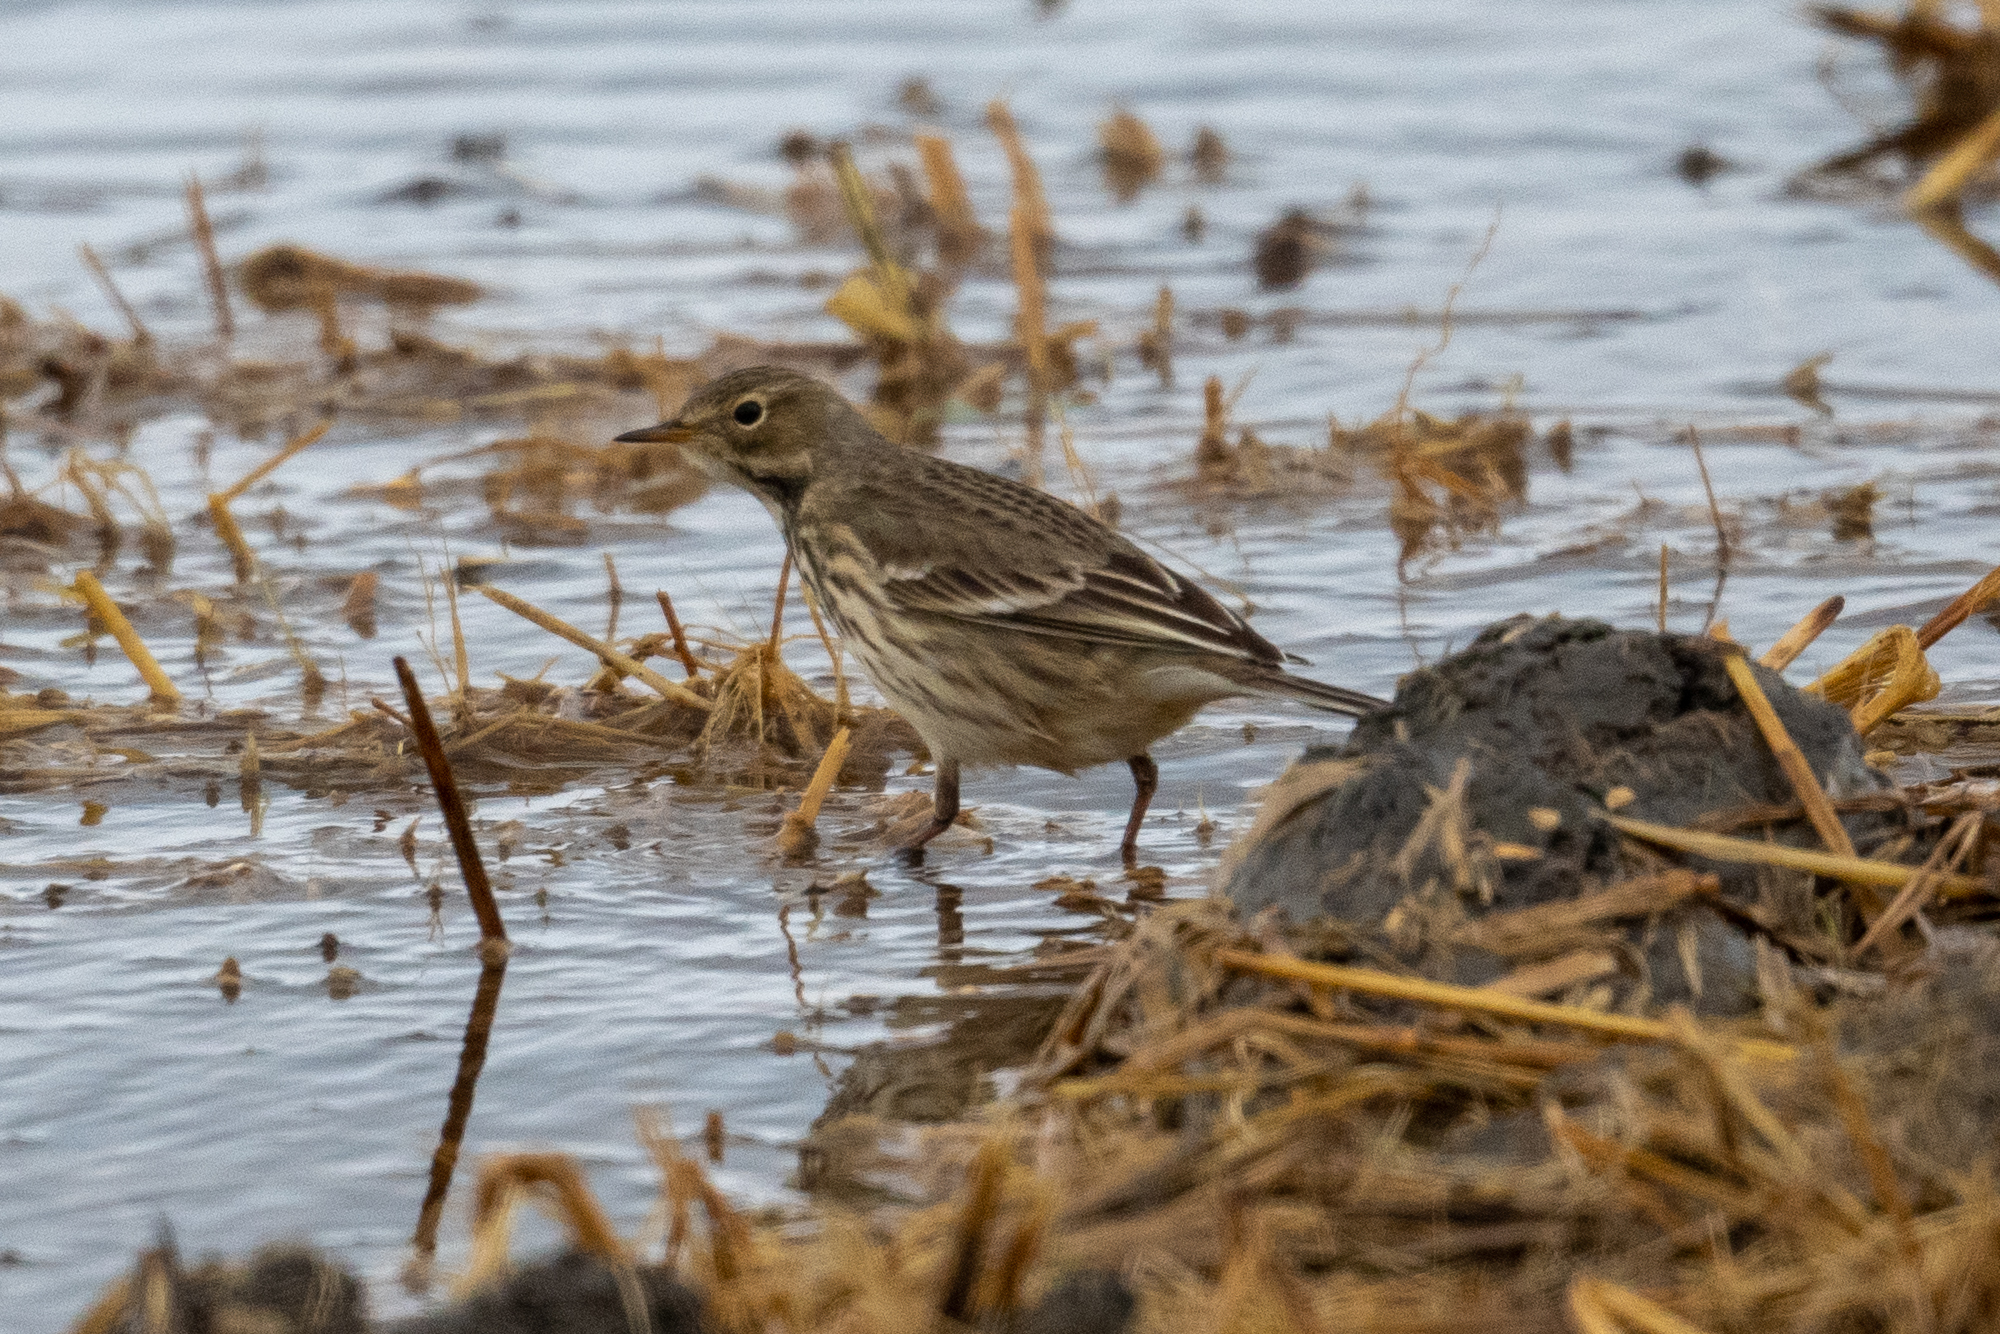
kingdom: Animalia
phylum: Chordata
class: Aves
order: Passeriformes
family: Motacillidae
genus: Anthus
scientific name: Anthus rubescens
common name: Buff-bellied pipit
